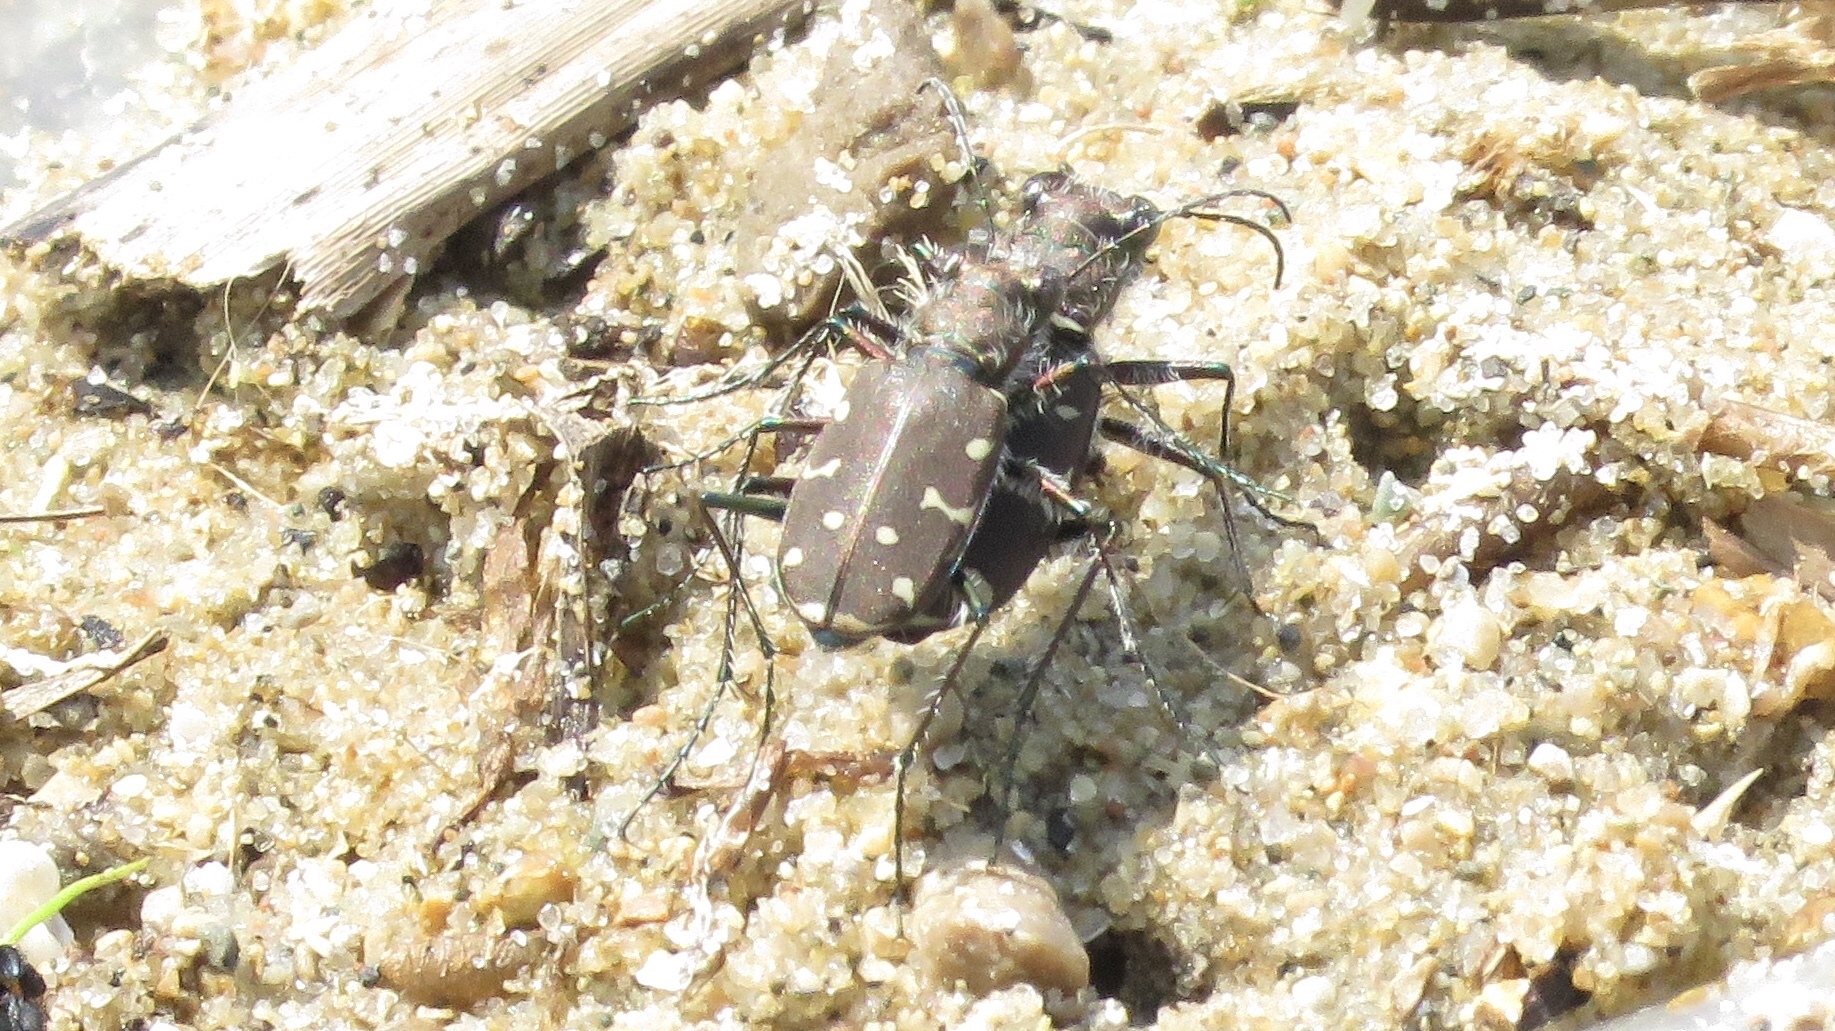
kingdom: Animalia
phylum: Arthropoda
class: Insecta
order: Coleoptera
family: Carabidae
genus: Cicindela
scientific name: Cicindela duodecimguttata
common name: Twelve-spotted tiger beetle
